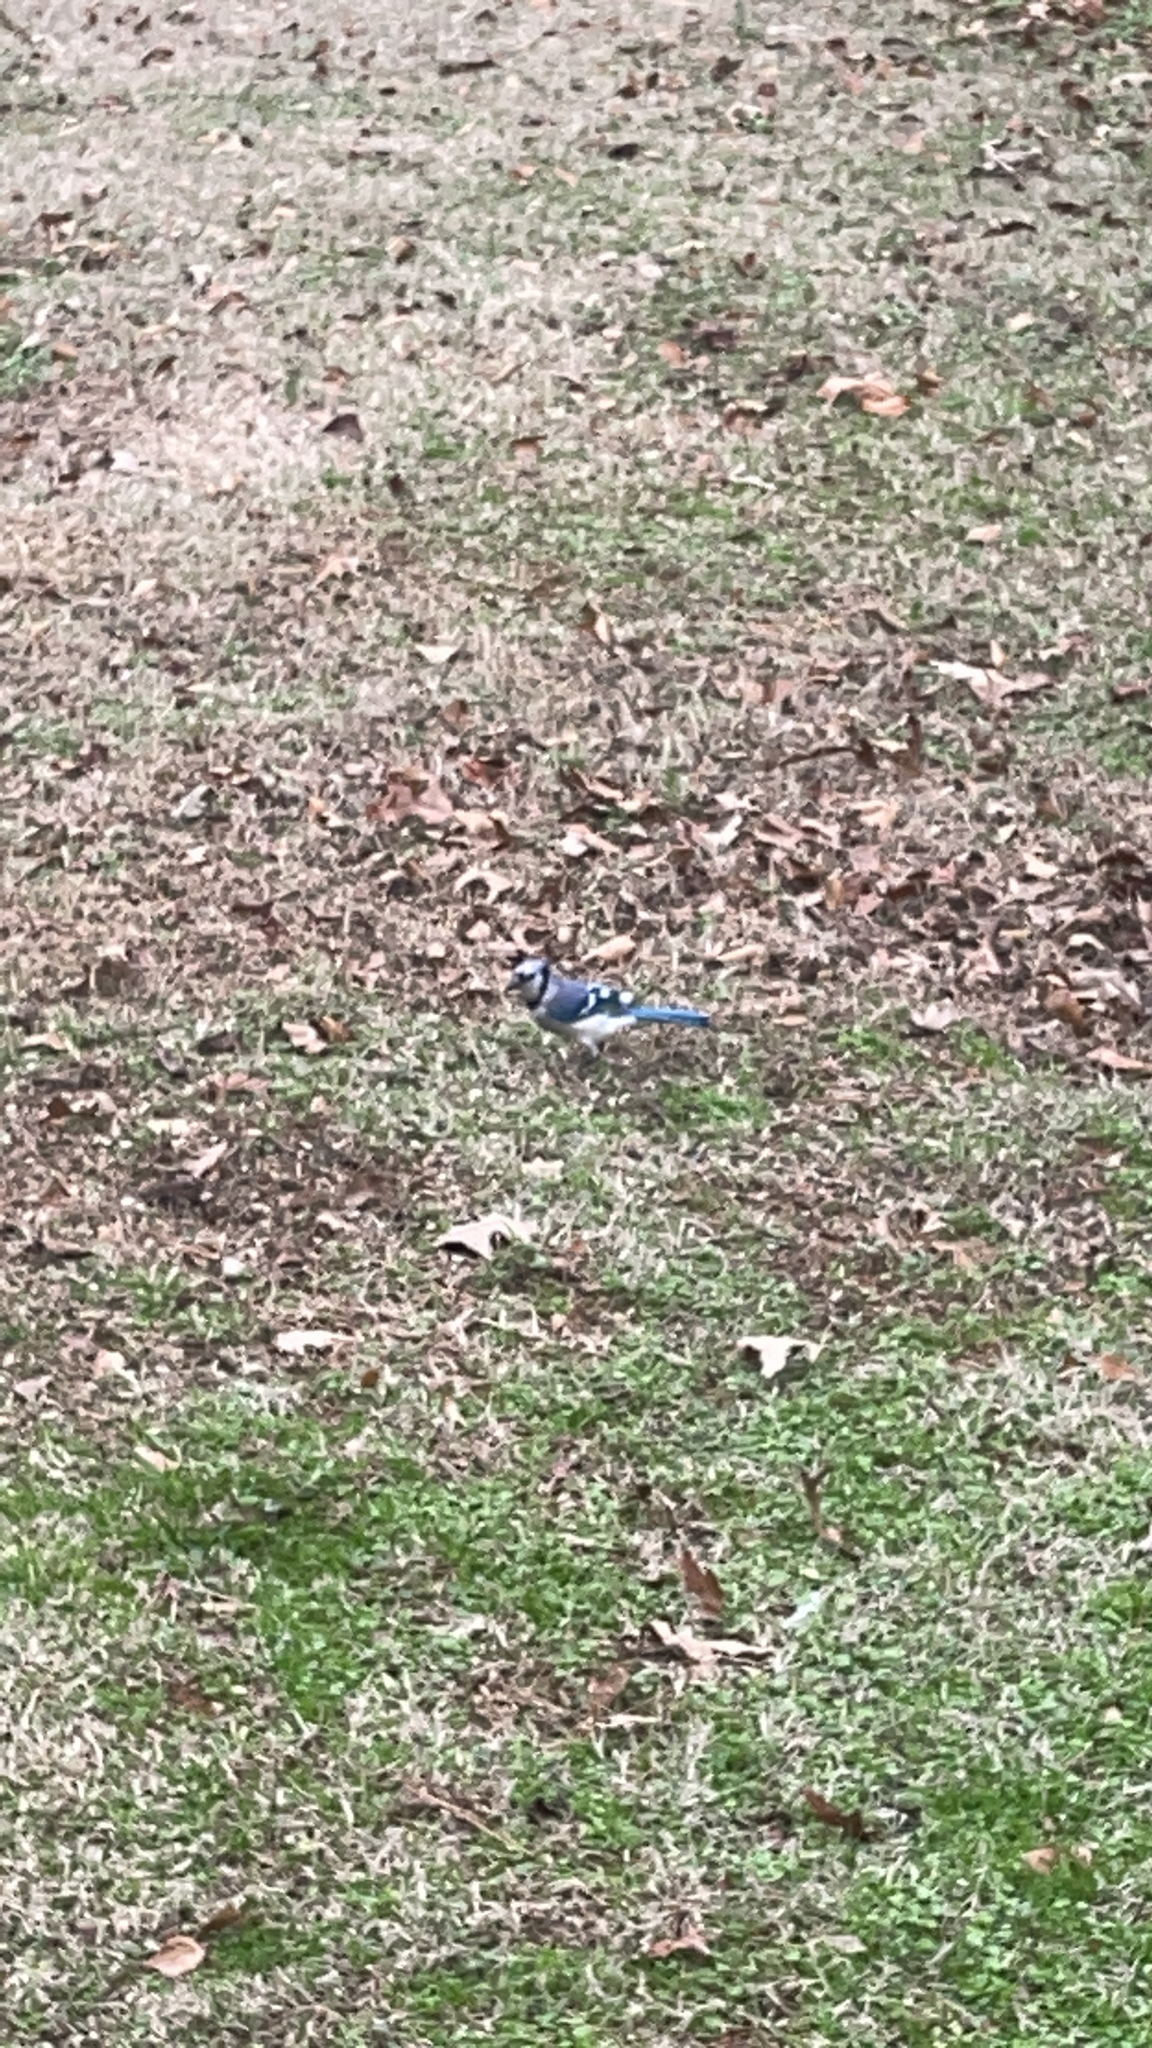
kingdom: Animalia
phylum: Chordata
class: Aves
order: Passeriformes
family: Corvidae
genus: Cyanocitta
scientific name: Cyanocitta cristata
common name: Blue jay
